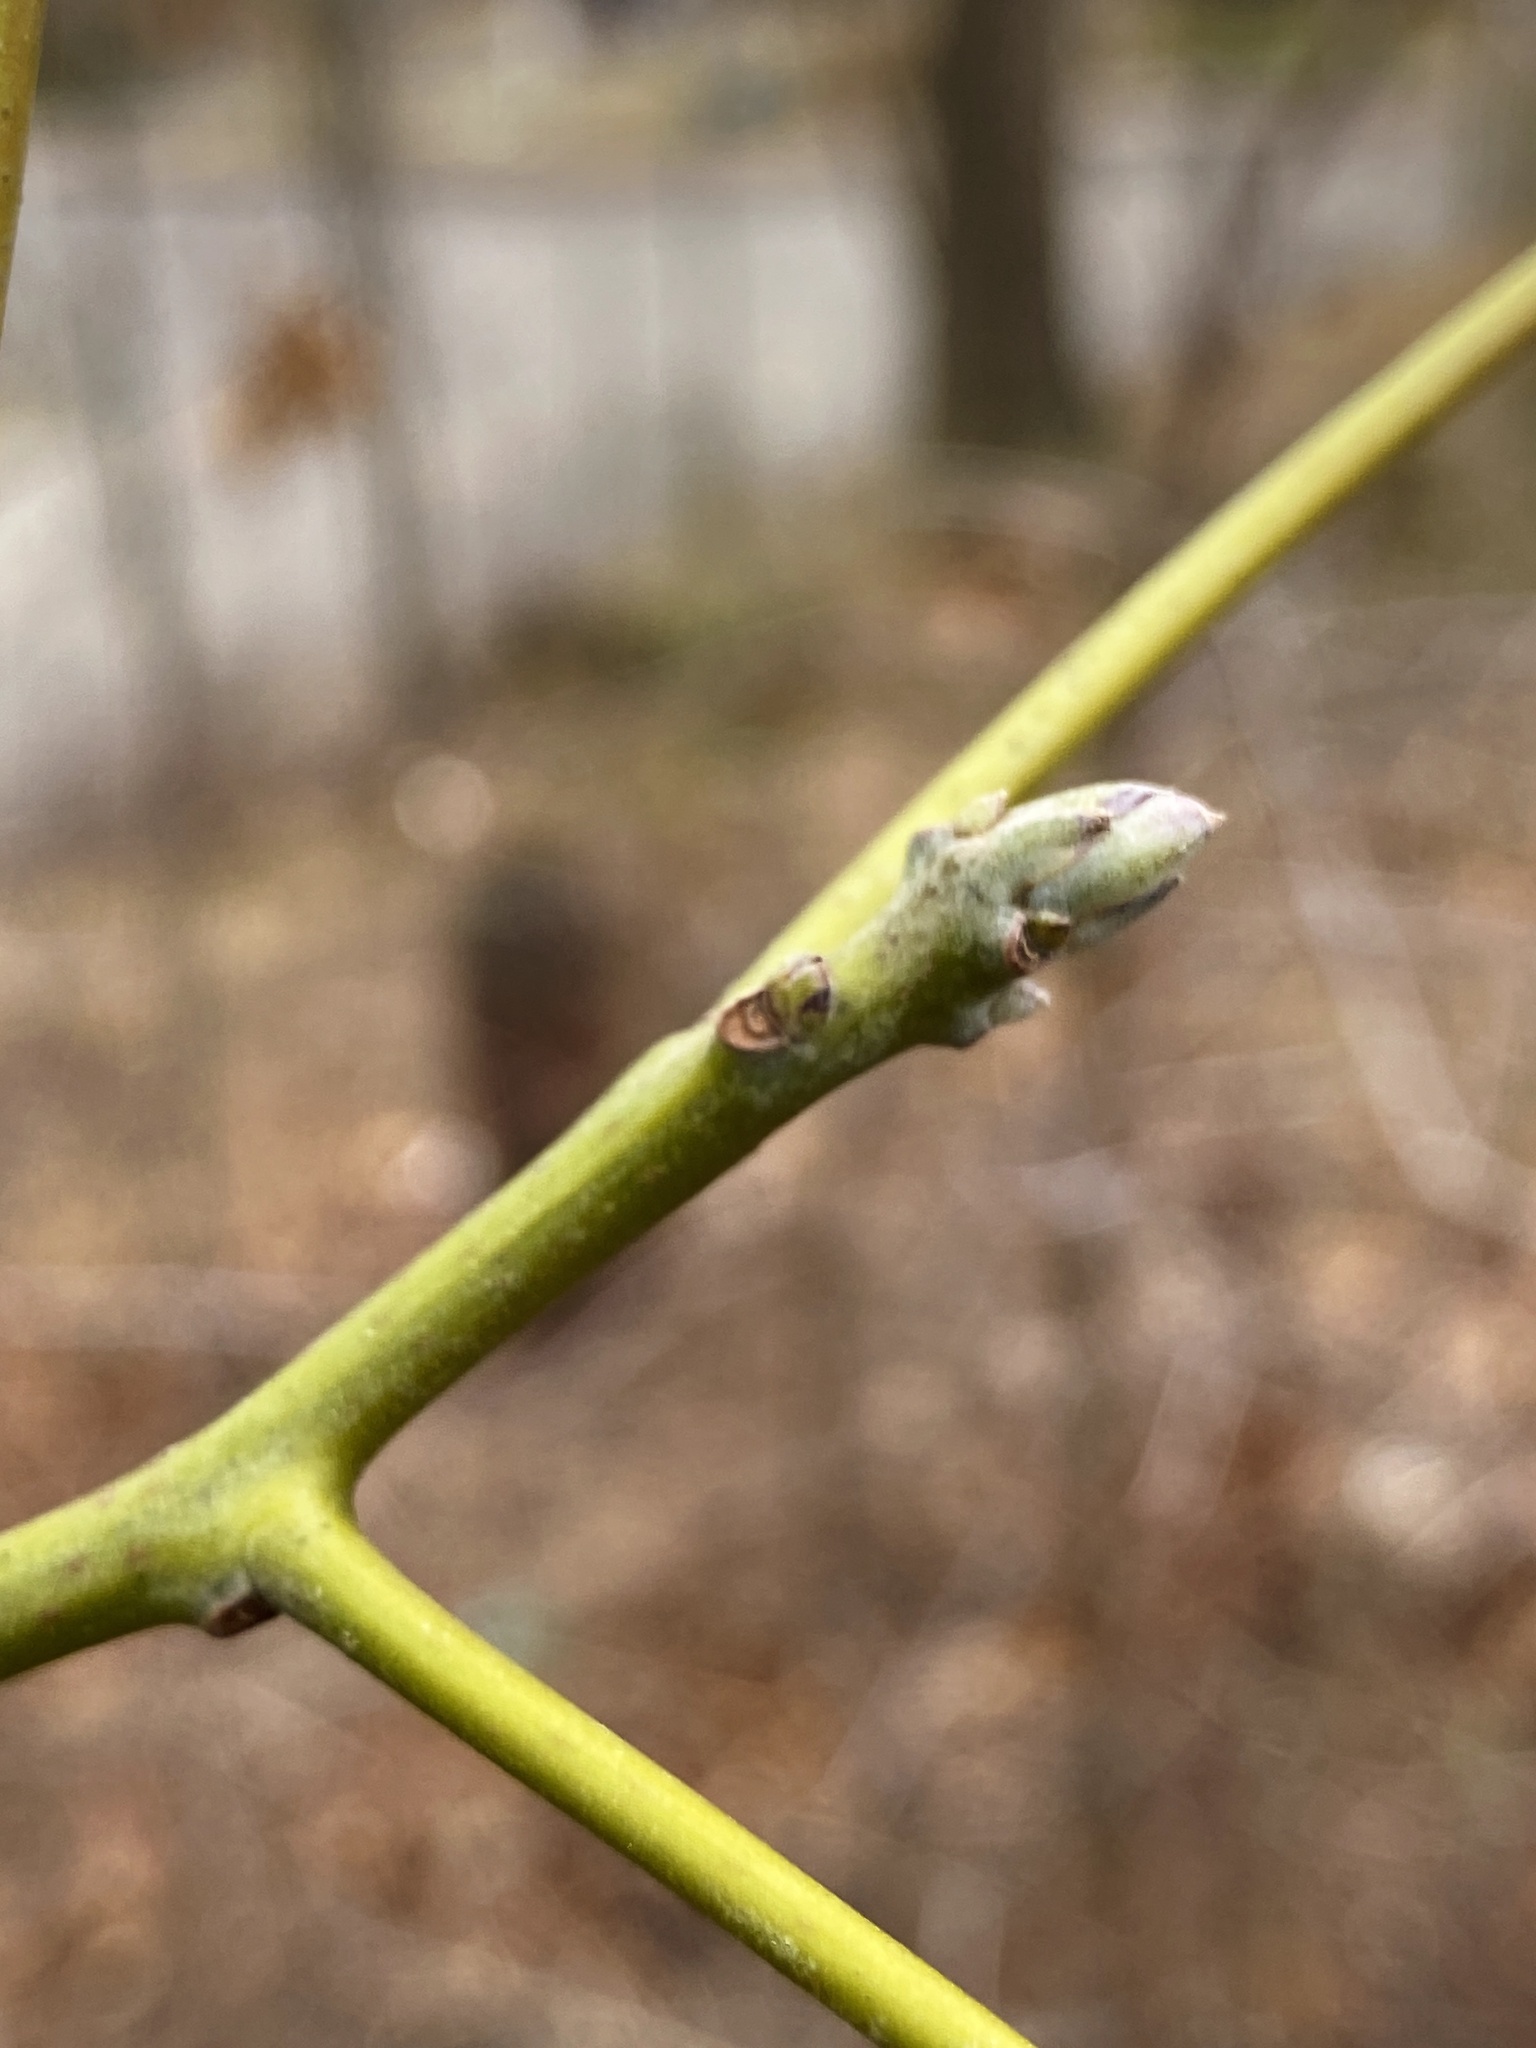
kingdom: Plantae
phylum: Tracheophyta
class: Magnoliopsida
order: Laurales
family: Lauraceae
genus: Sassafras
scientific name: Sassafras albidum
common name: Sassafras
